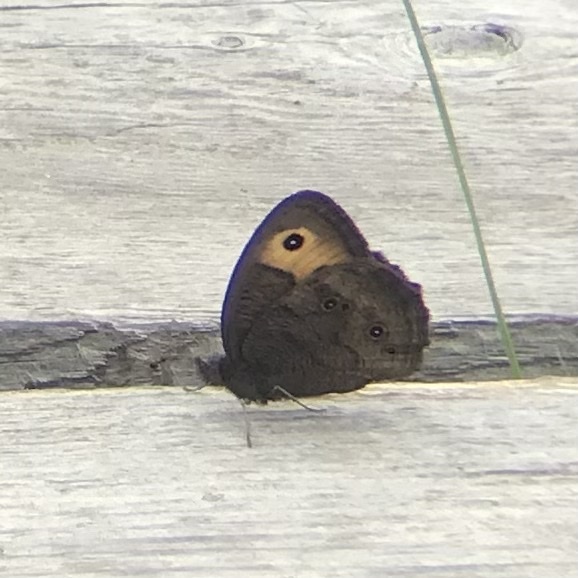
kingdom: Animalia
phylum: Arthropoda
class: Insecta
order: Lepidoptera
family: Nymphalidae
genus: Cercyonis
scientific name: Cercyonis pegala
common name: Common wood-nymph
